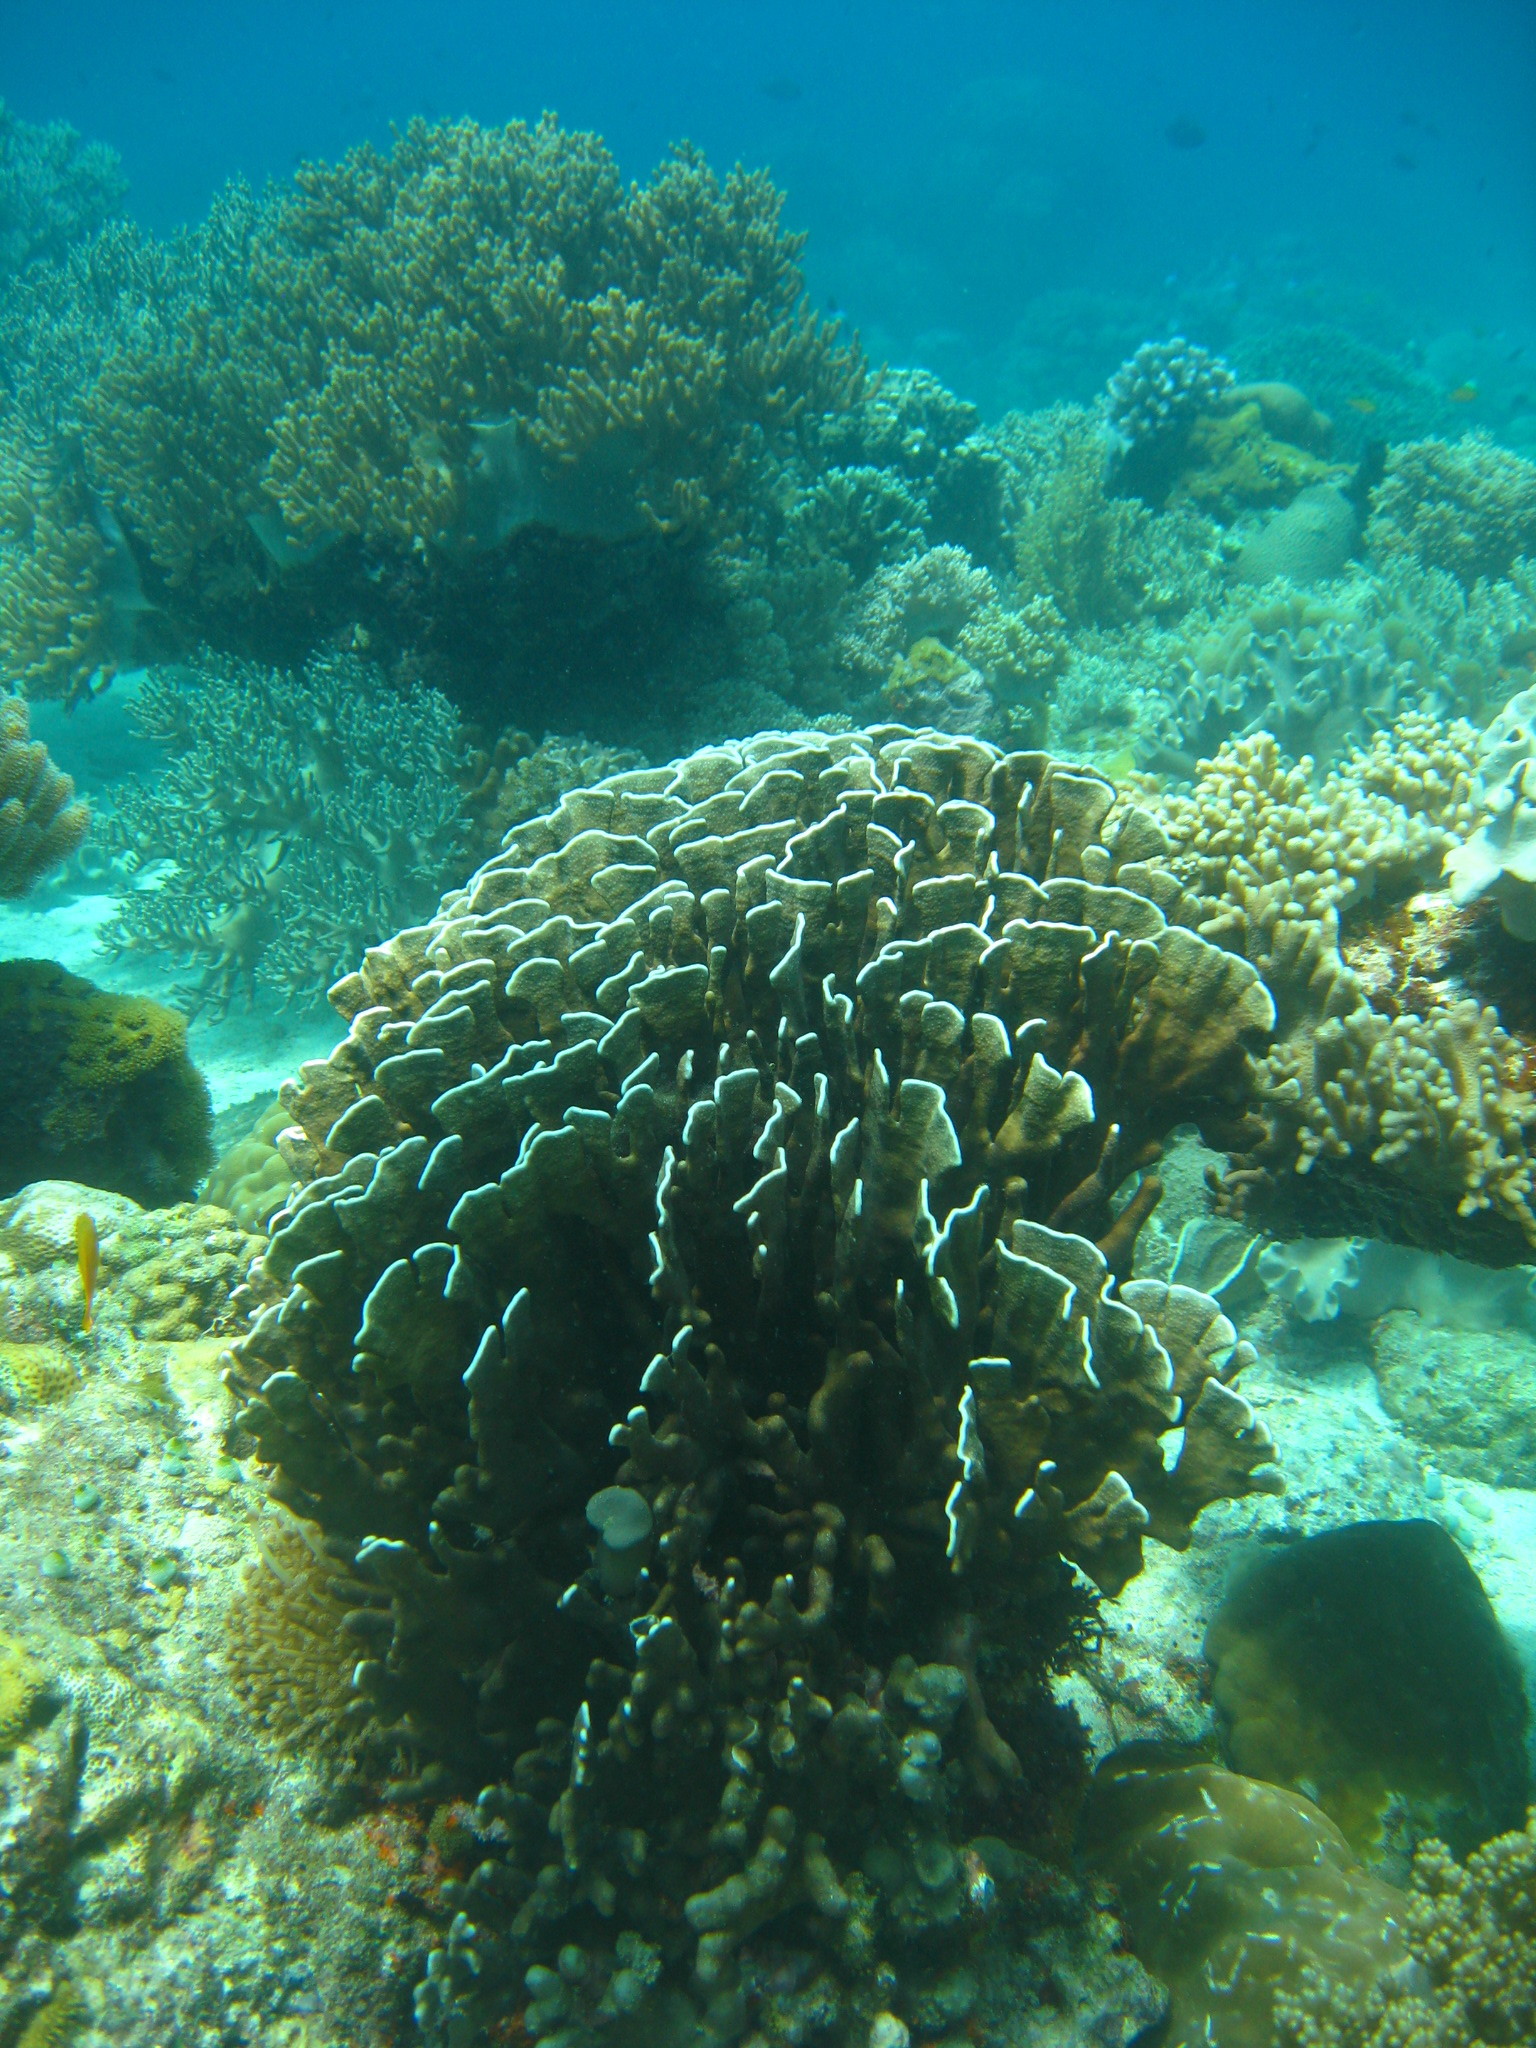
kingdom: Animalia
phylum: Cnidaria
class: Anthozoa
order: Scleralcyonacea
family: Helioporidae
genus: Heliopora
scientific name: Heliopora coerulea
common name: Blue coral
